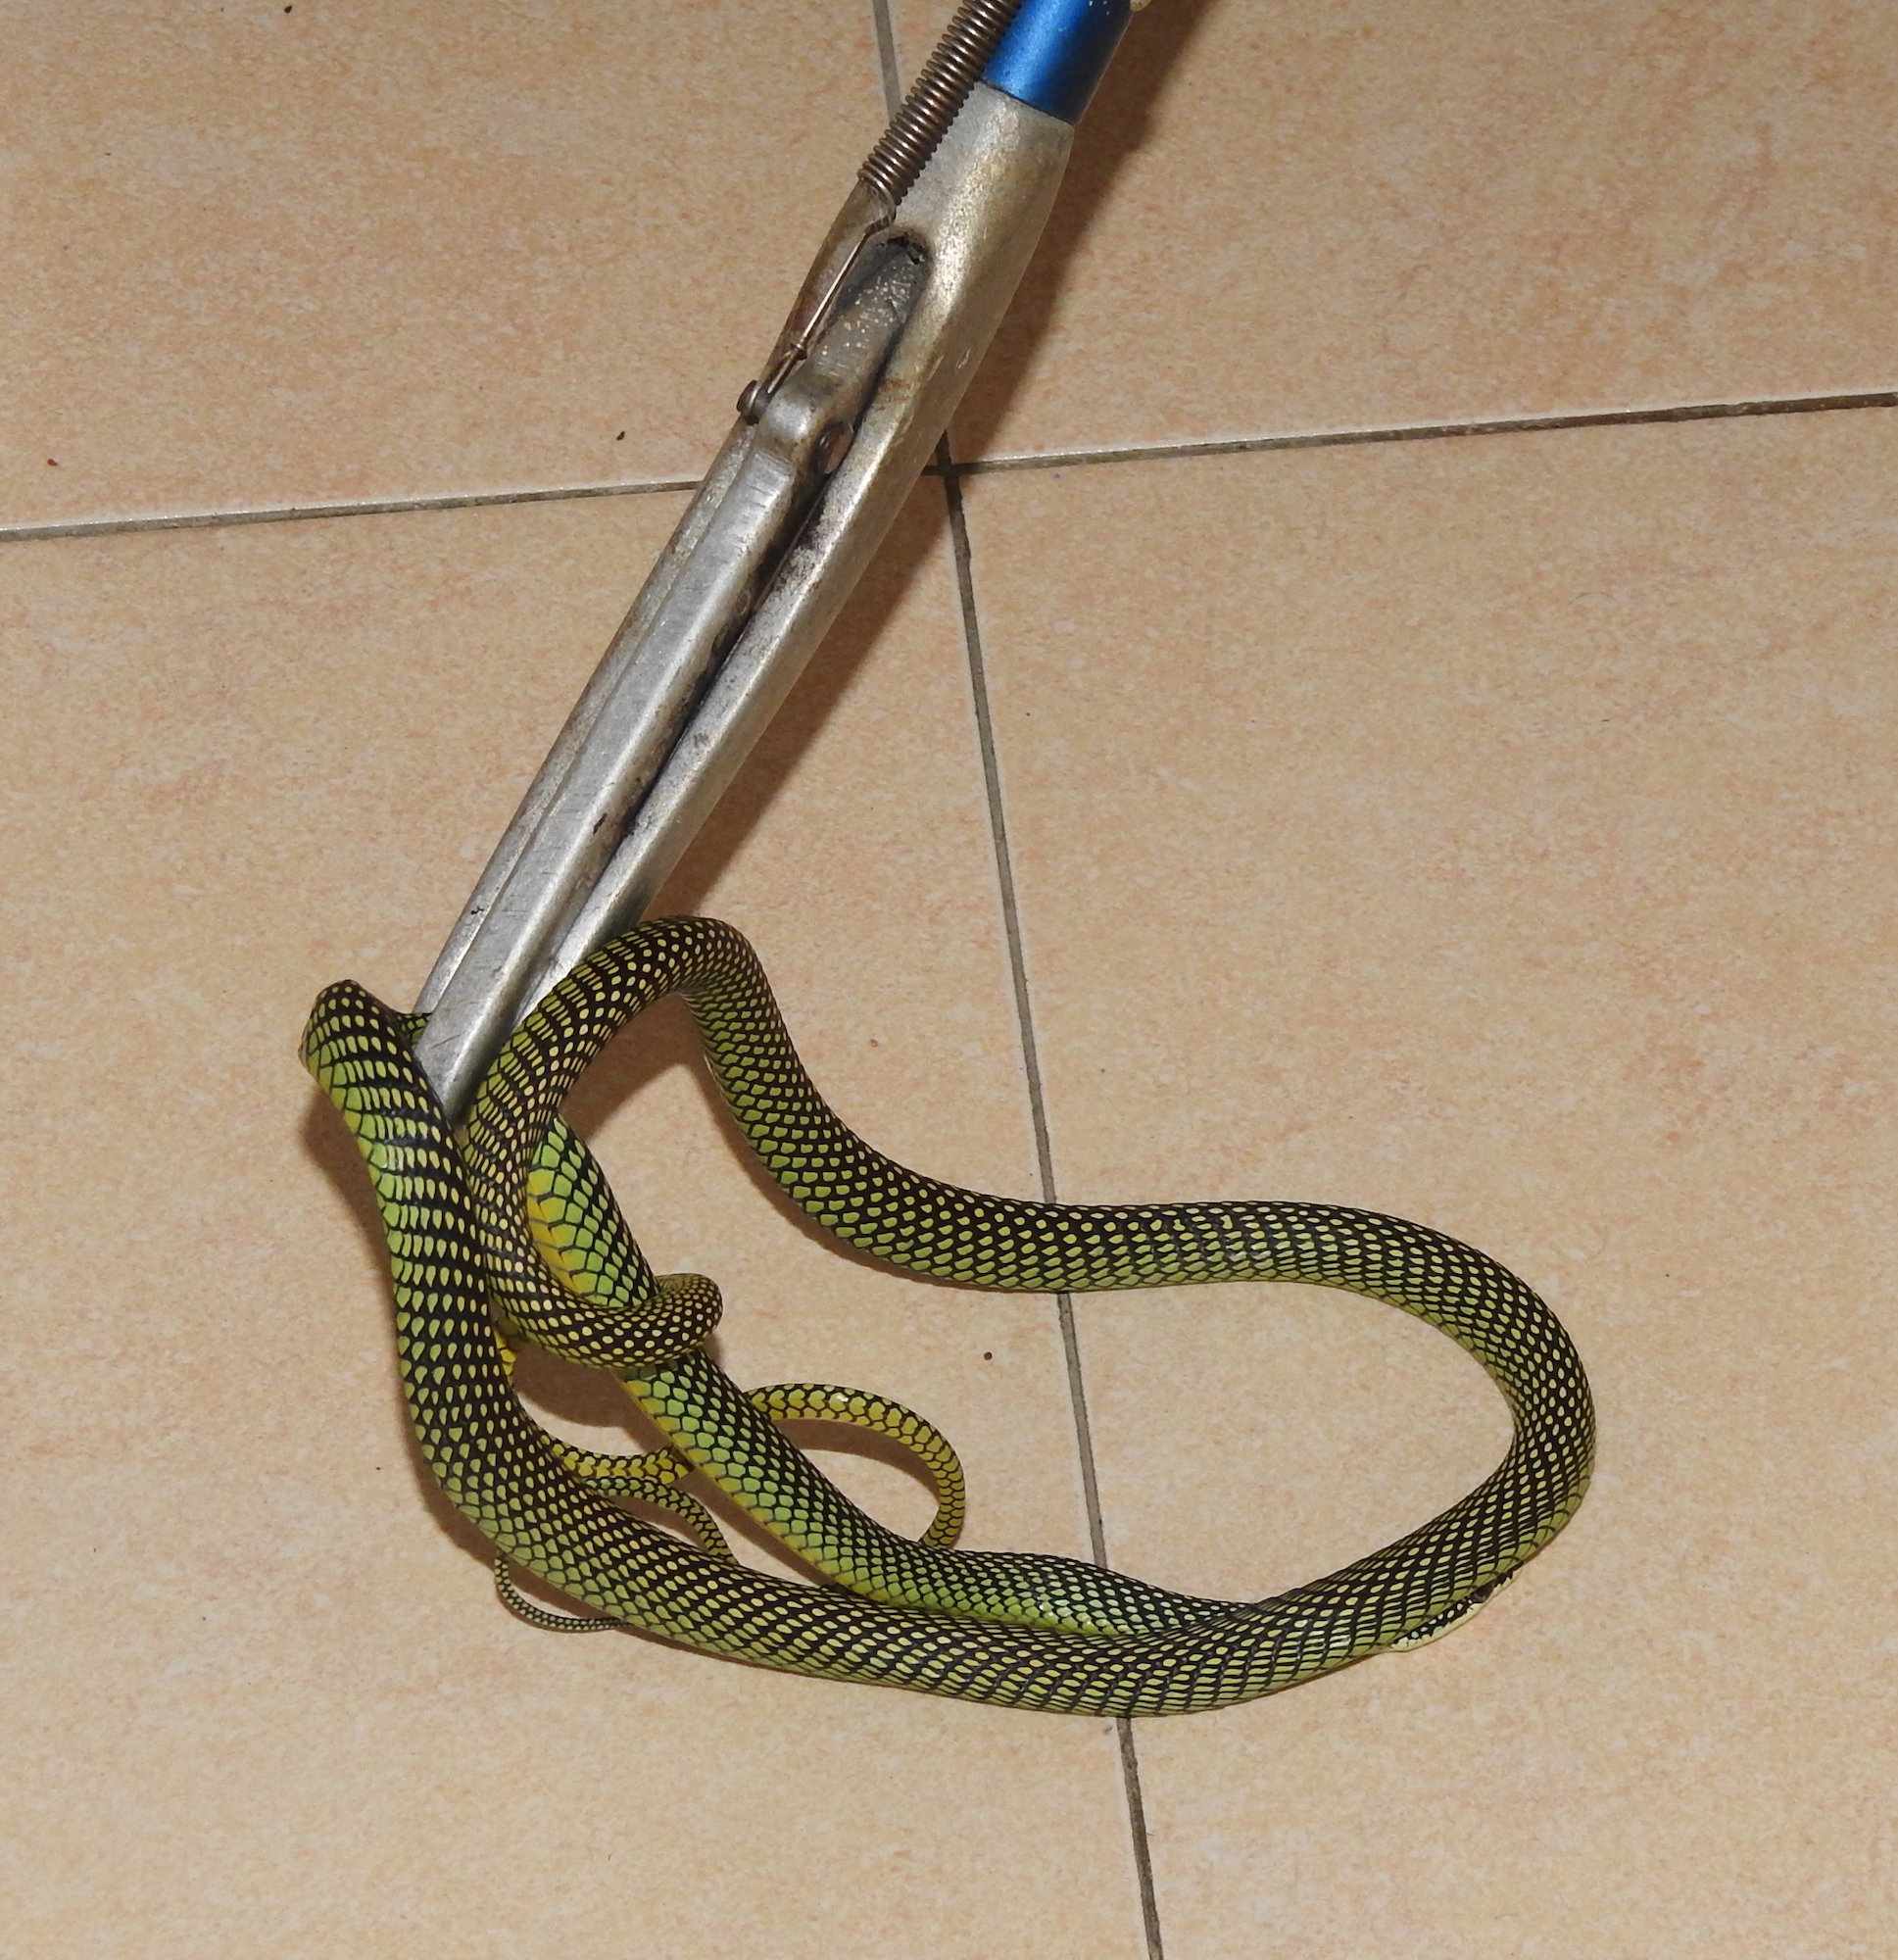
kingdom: Animalia
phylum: Chordata
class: Squamata
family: Colubridae
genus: Chrysopelea
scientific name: Chrysopelea paradisi
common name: Paradise tree snake
